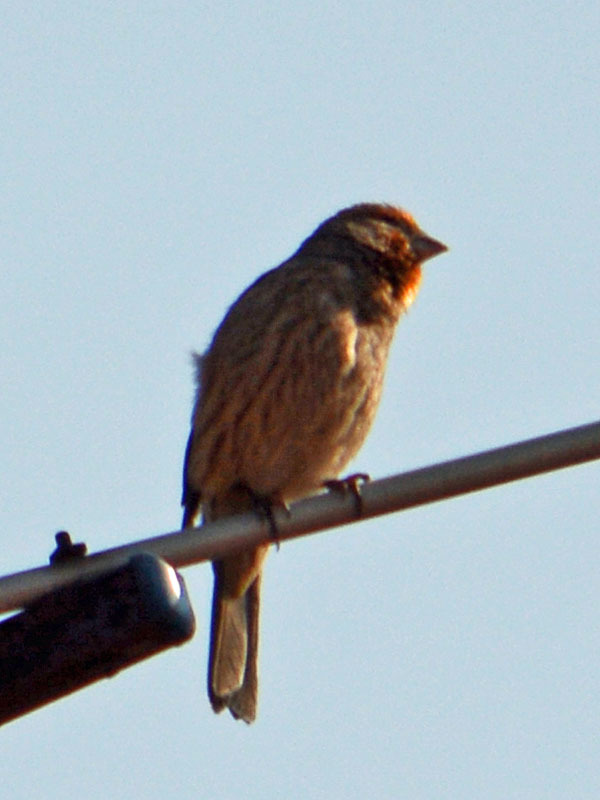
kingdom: Animalia
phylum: Chordata
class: Aves
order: Passeriformes
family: Fringillidae
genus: Haemorhous
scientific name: Haemorhous mexicanus
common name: House finch
